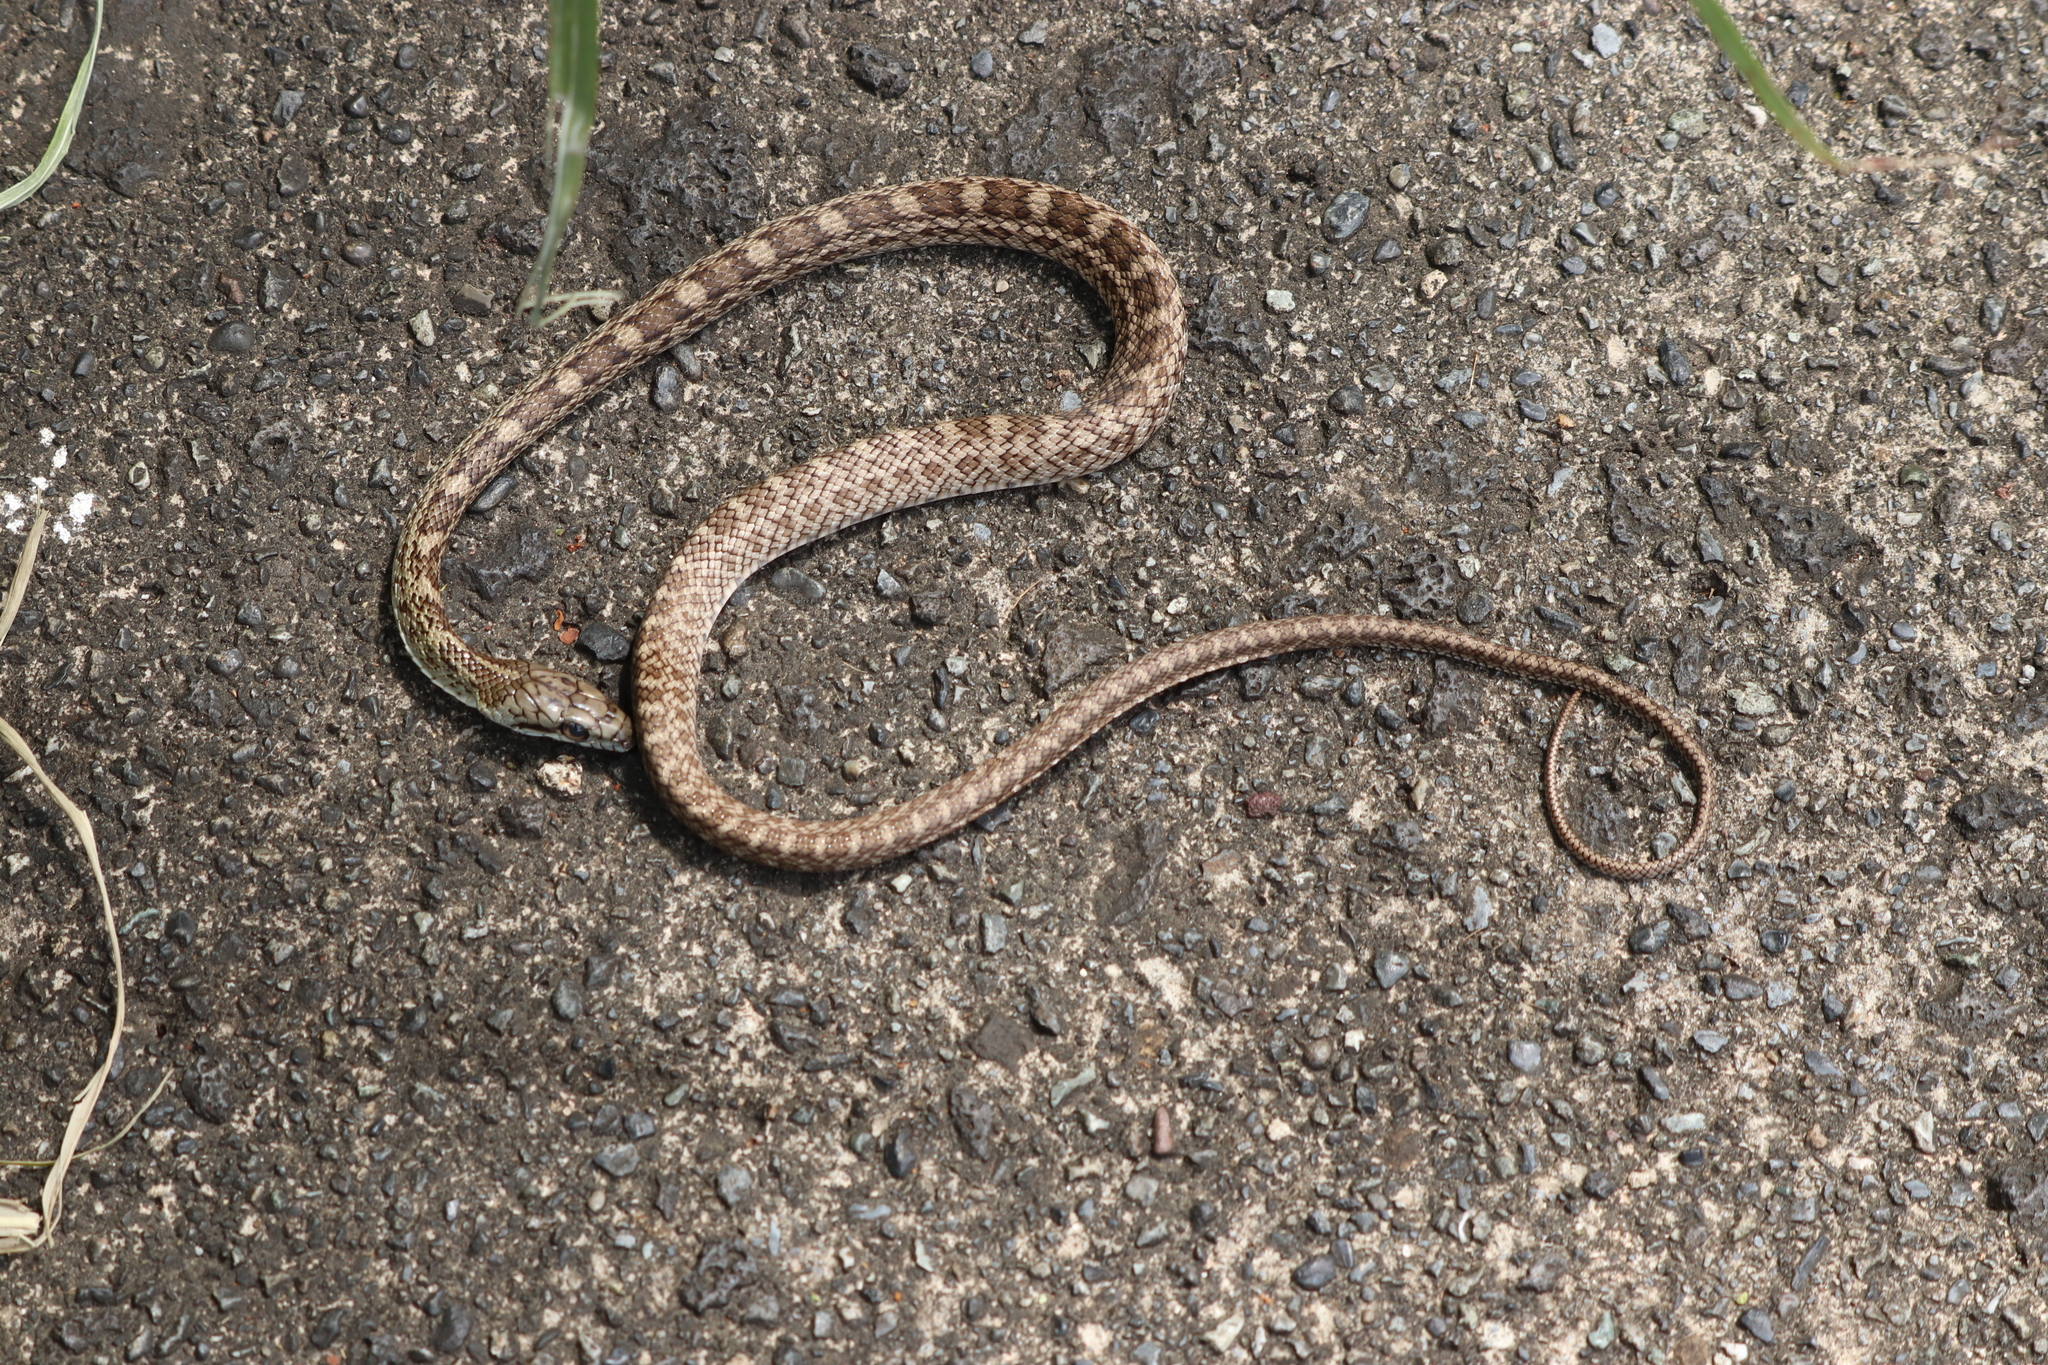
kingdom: Animalia
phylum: Chordata
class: Squamata
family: Colubridae
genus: Elaphe
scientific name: Elaphe climacophora
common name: Japanese ratsnake
